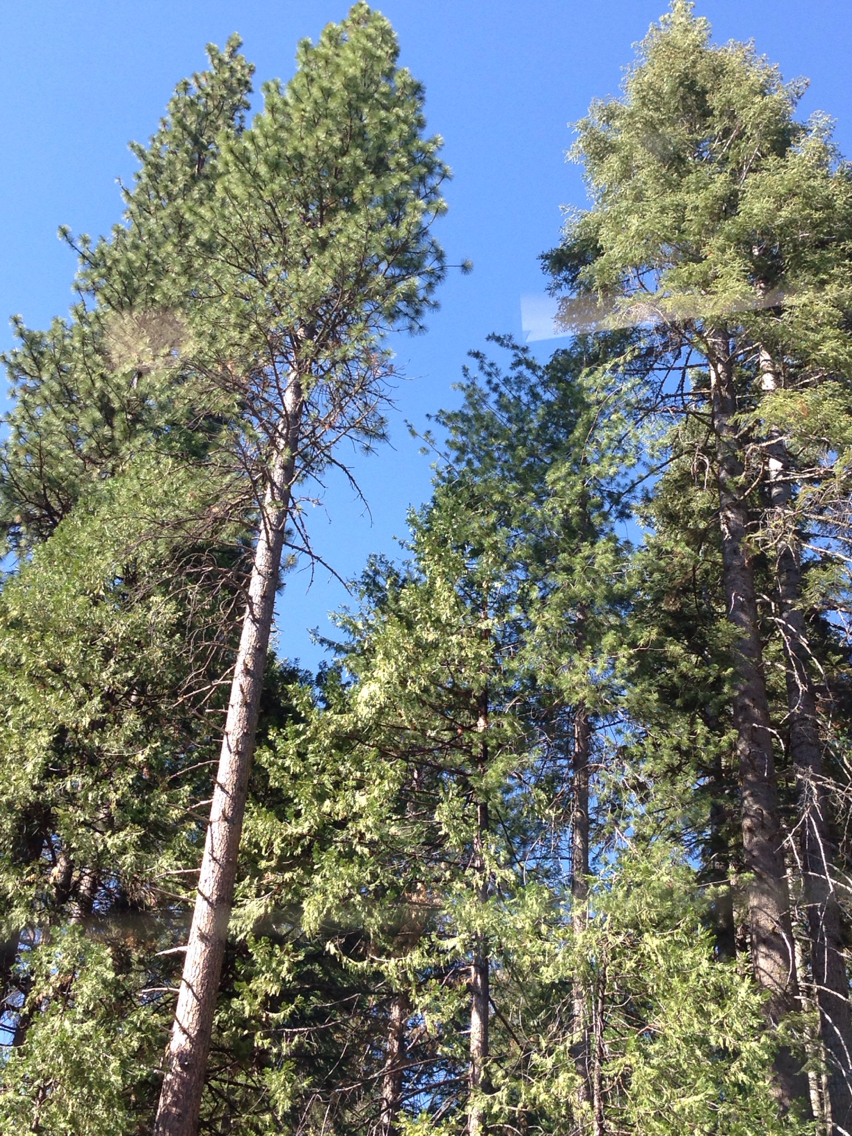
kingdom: Plantae
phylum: Tracheophyta
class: Pinopsida
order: Pinales
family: Pinaceae
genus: Pinus
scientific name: Pinus ponderosa
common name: Western yellow-pine
